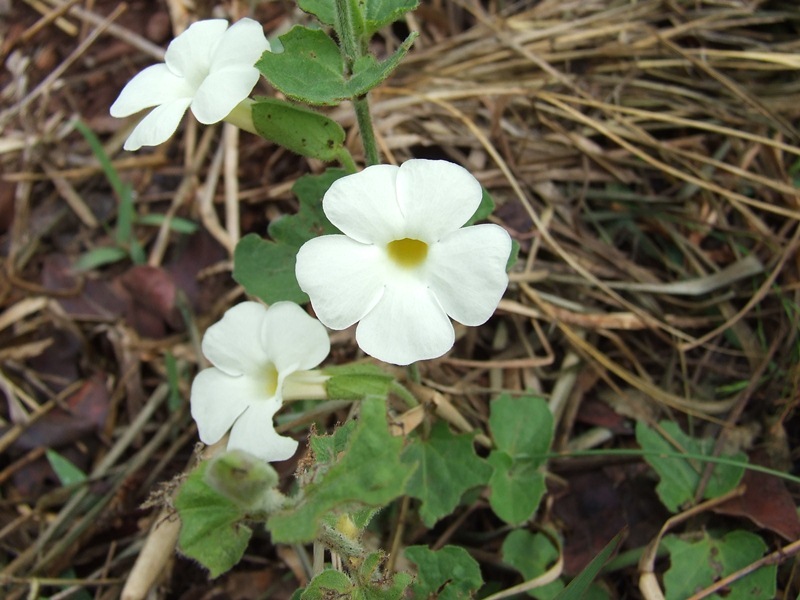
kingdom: Plantae
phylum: Tracheophyta
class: Magnoliopsida
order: Lamiales
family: Acanthaceae
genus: Thunbergia
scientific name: Thunbergia neglecta
